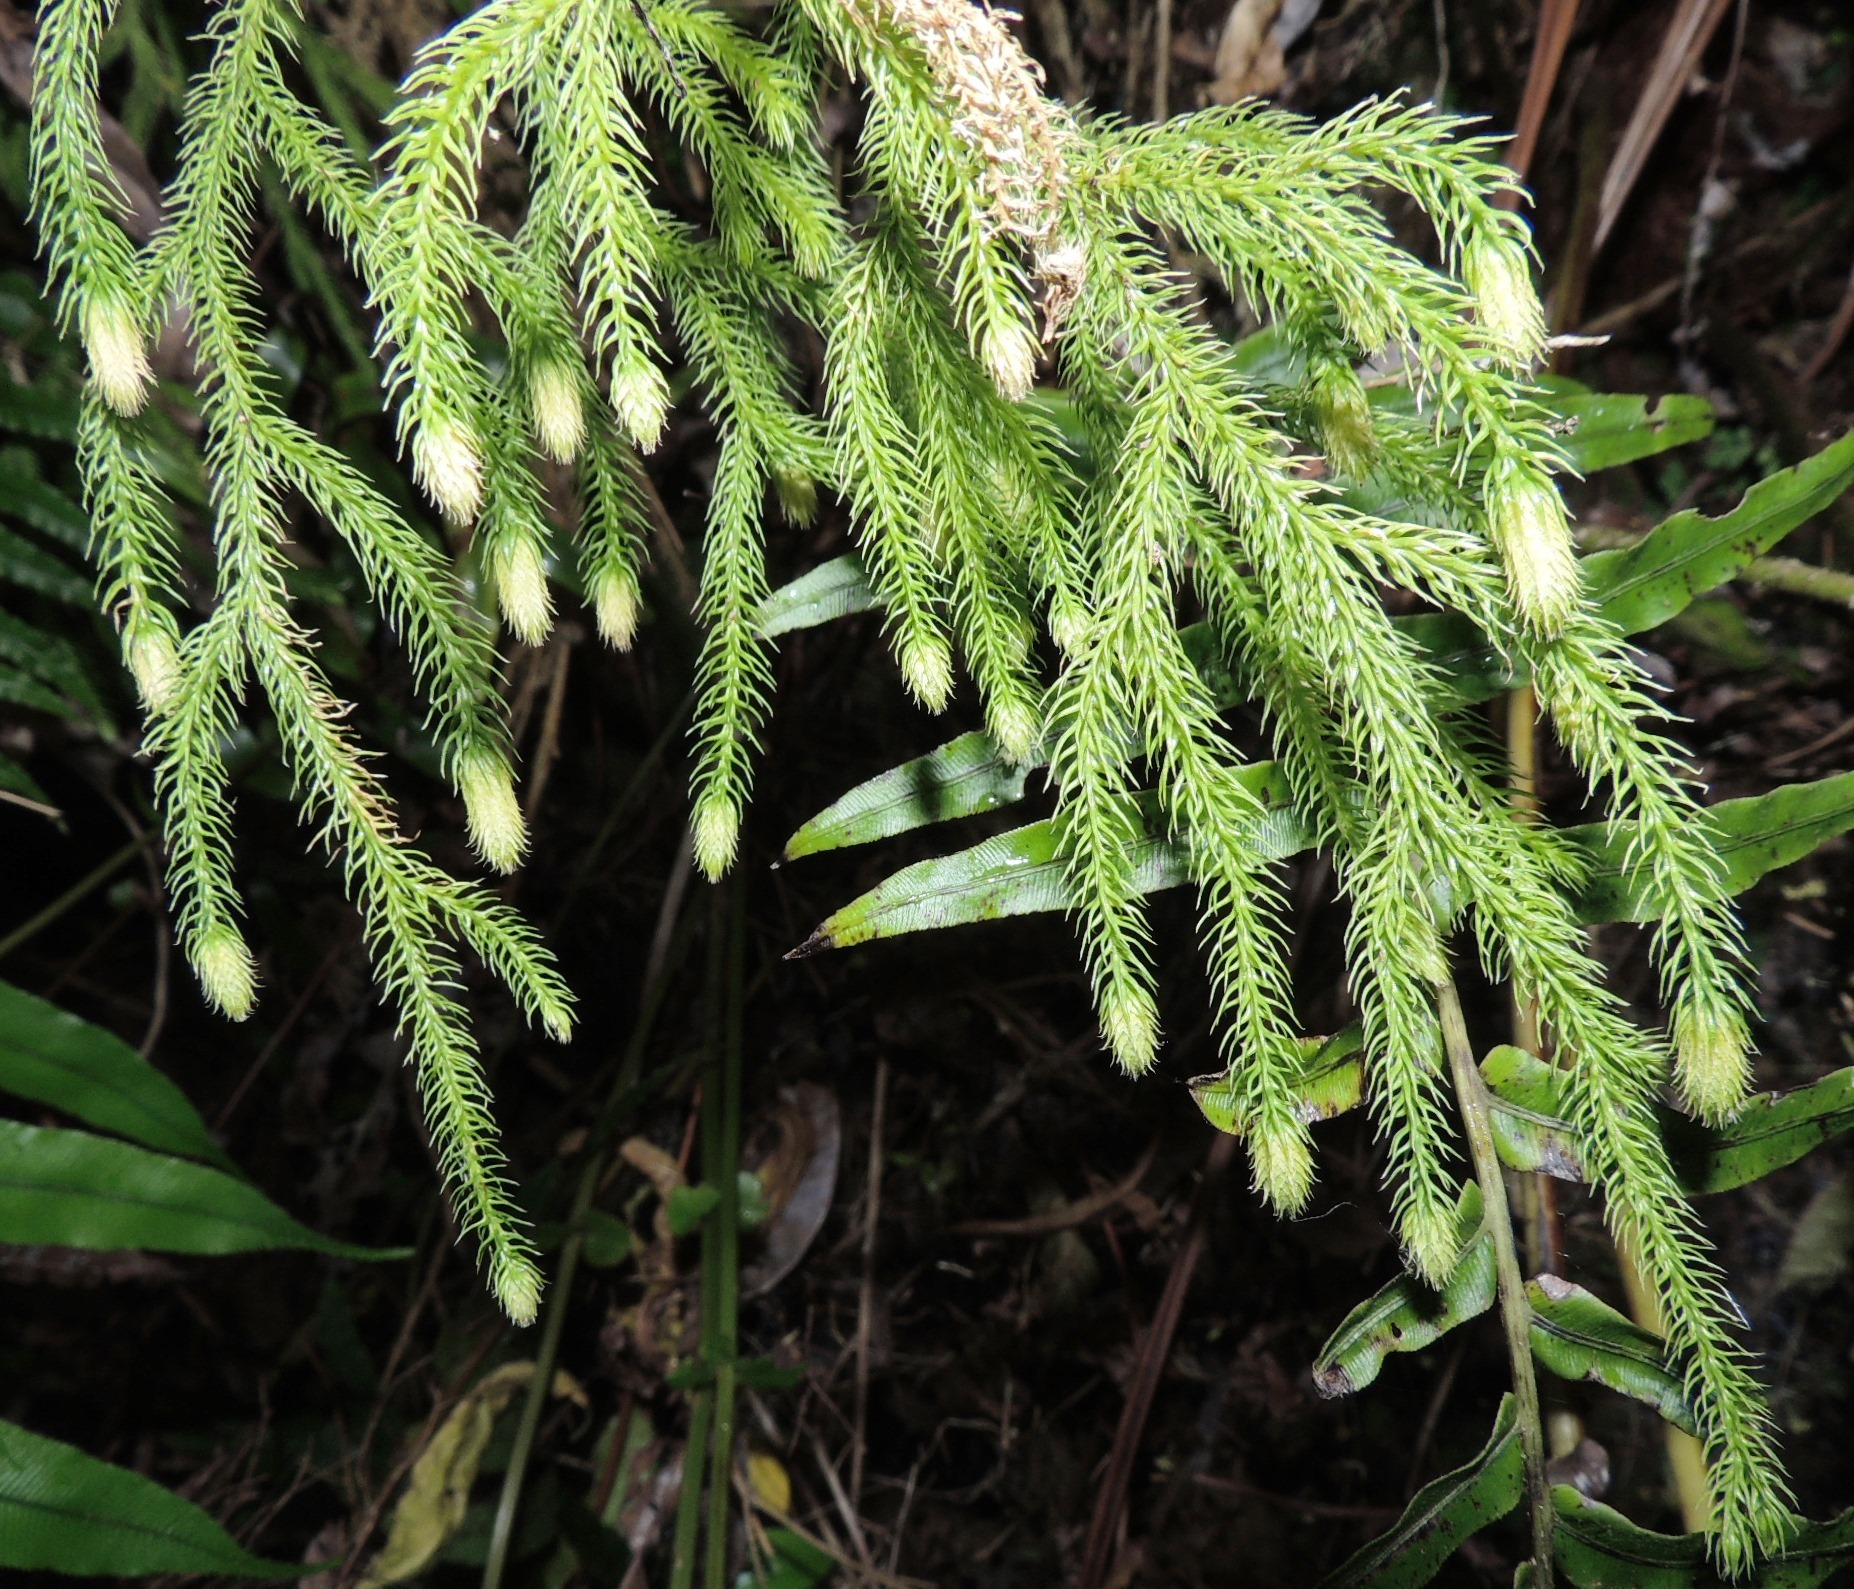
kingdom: Plantae
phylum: Tracheophyta
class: Lycopodiopsida
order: Lycopodiales
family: Lycopodiaceae
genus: Palhinhaea
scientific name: Palhinhaea cernua
